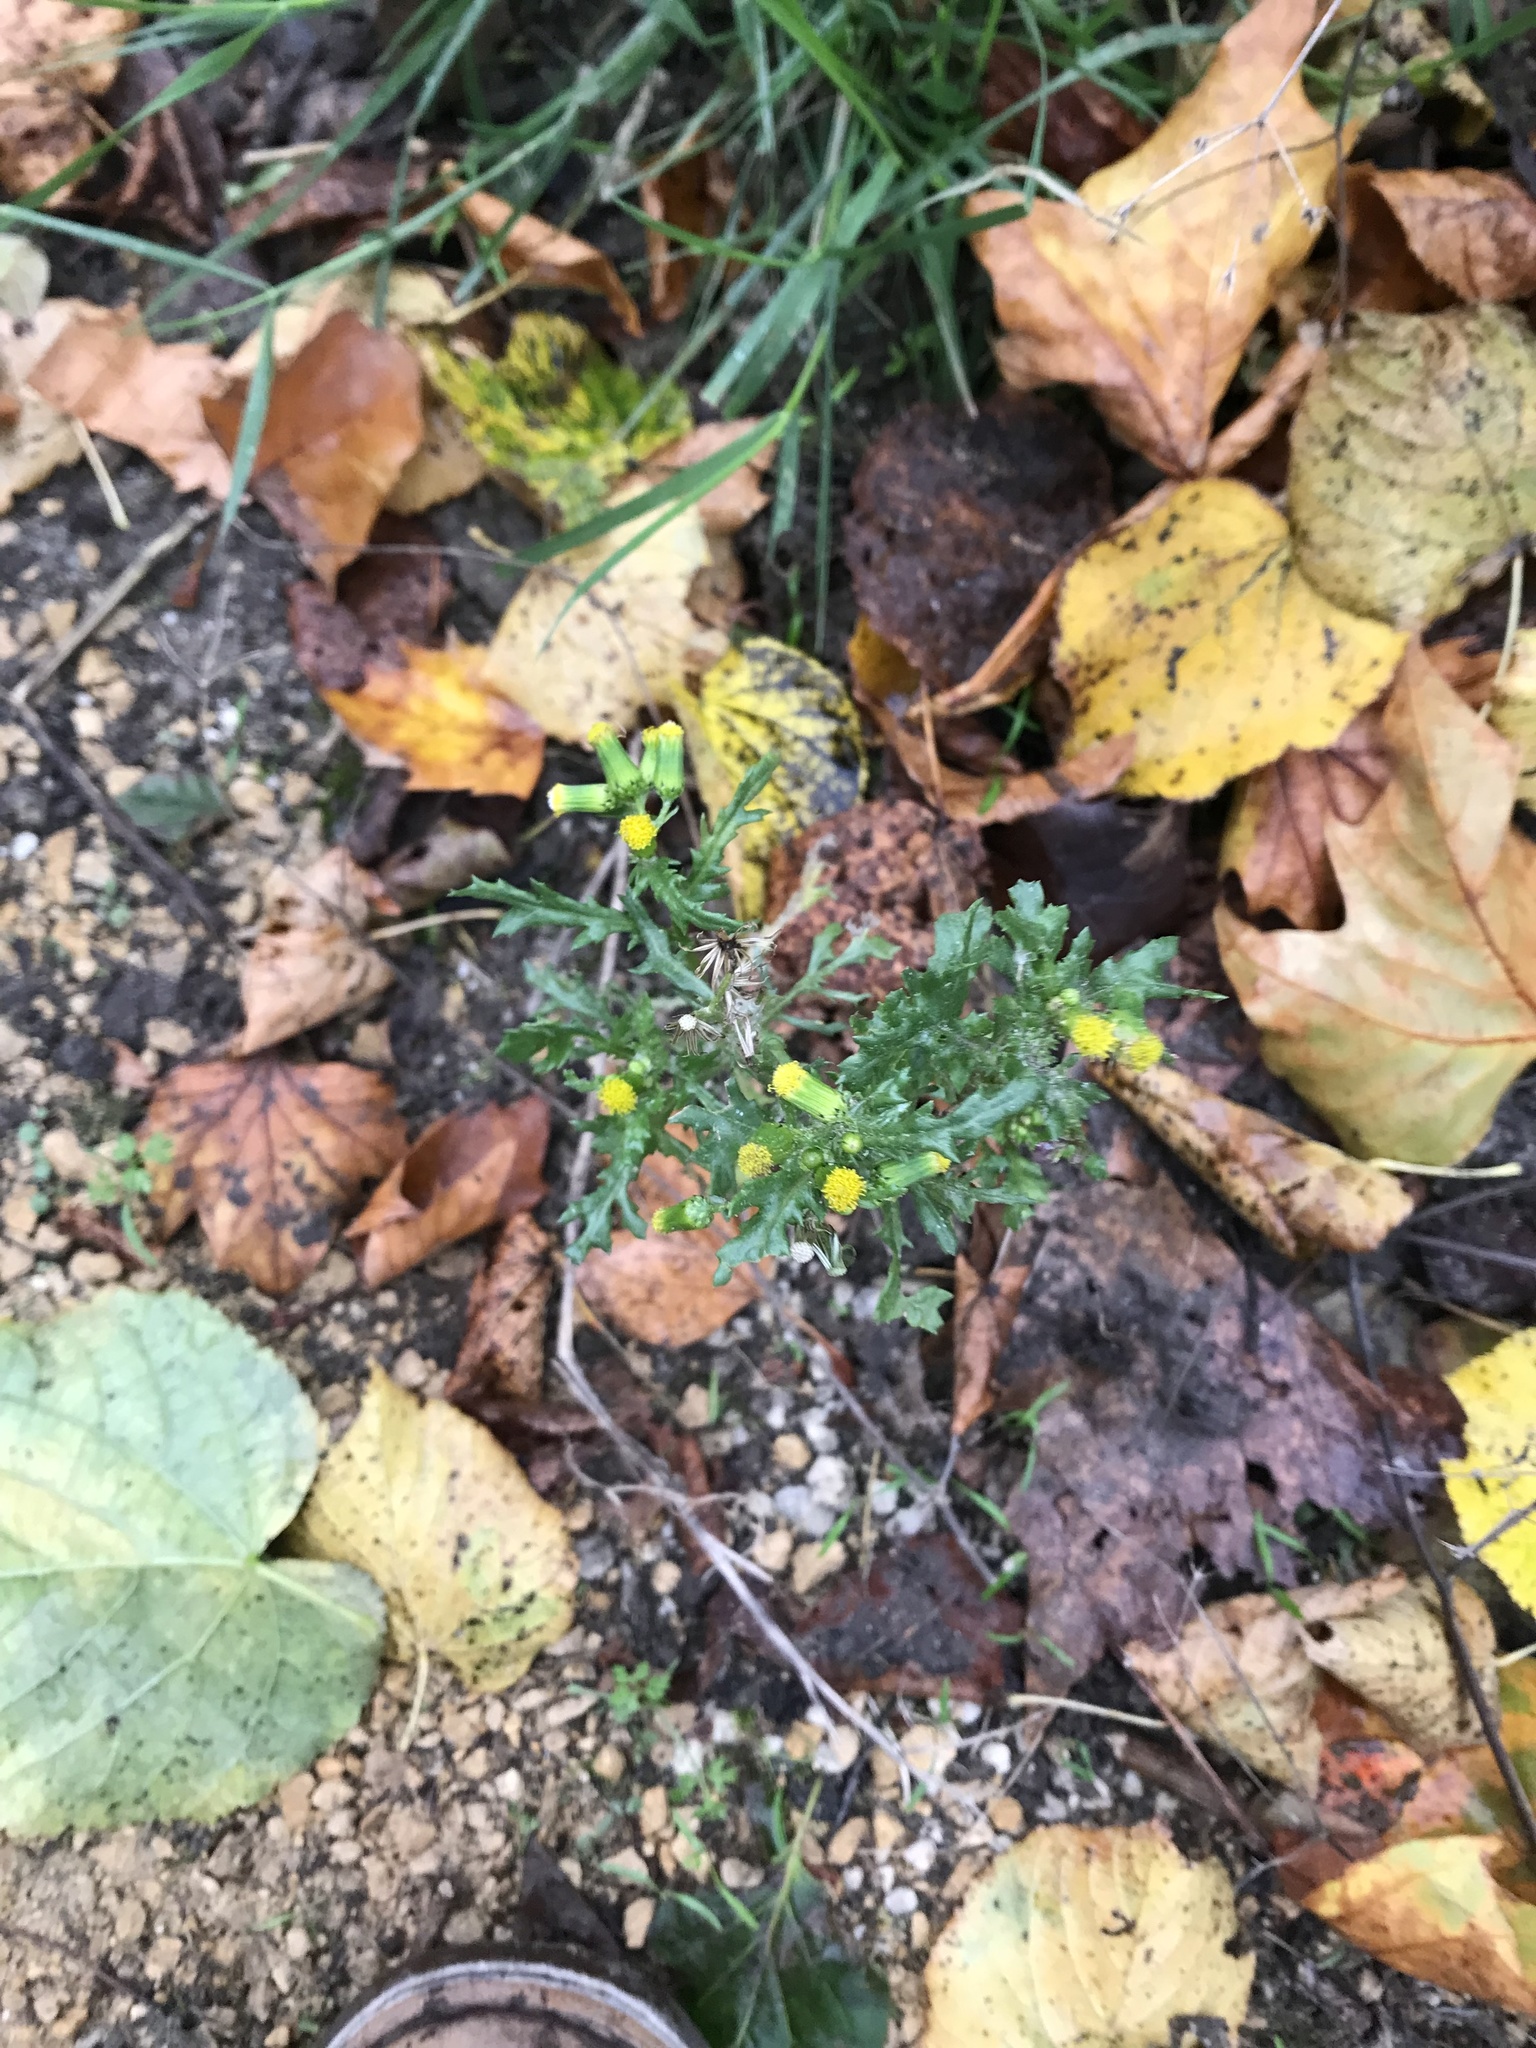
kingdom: Plantae
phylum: Tracheophyta
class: Magnoliopsida
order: Asterales
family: Asteraceae
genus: Senecio
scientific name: Senecio vulgaris
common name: Old-man-in-the-spring
